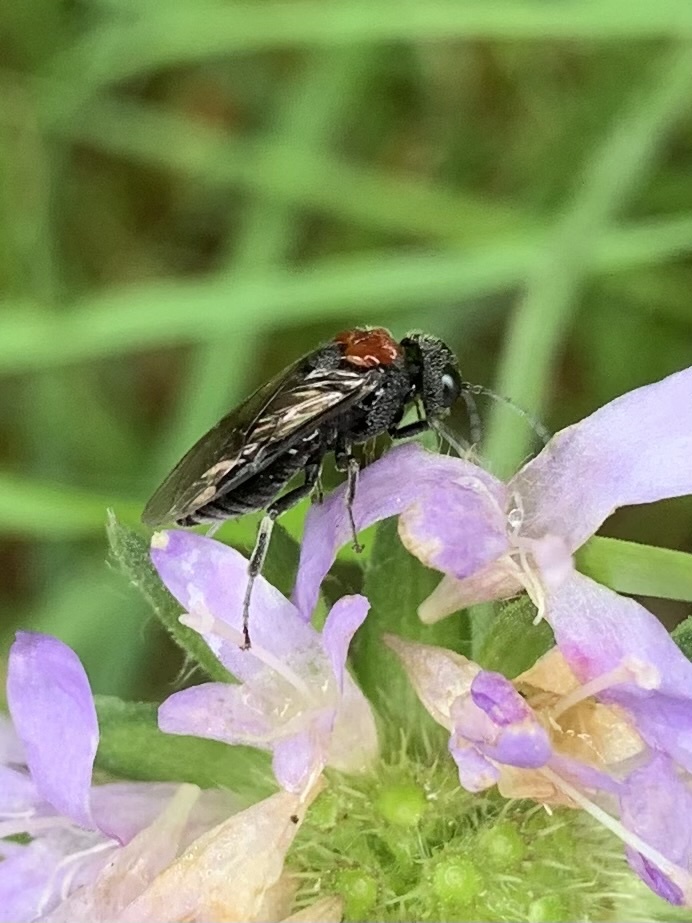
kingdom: Animalia
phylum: Arthropoda
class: Insecta
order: Hymenoptera
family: Tenthredinidae
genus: Eriocampa
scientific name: Eriocampa ovata
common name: Alder wooly sawfly
